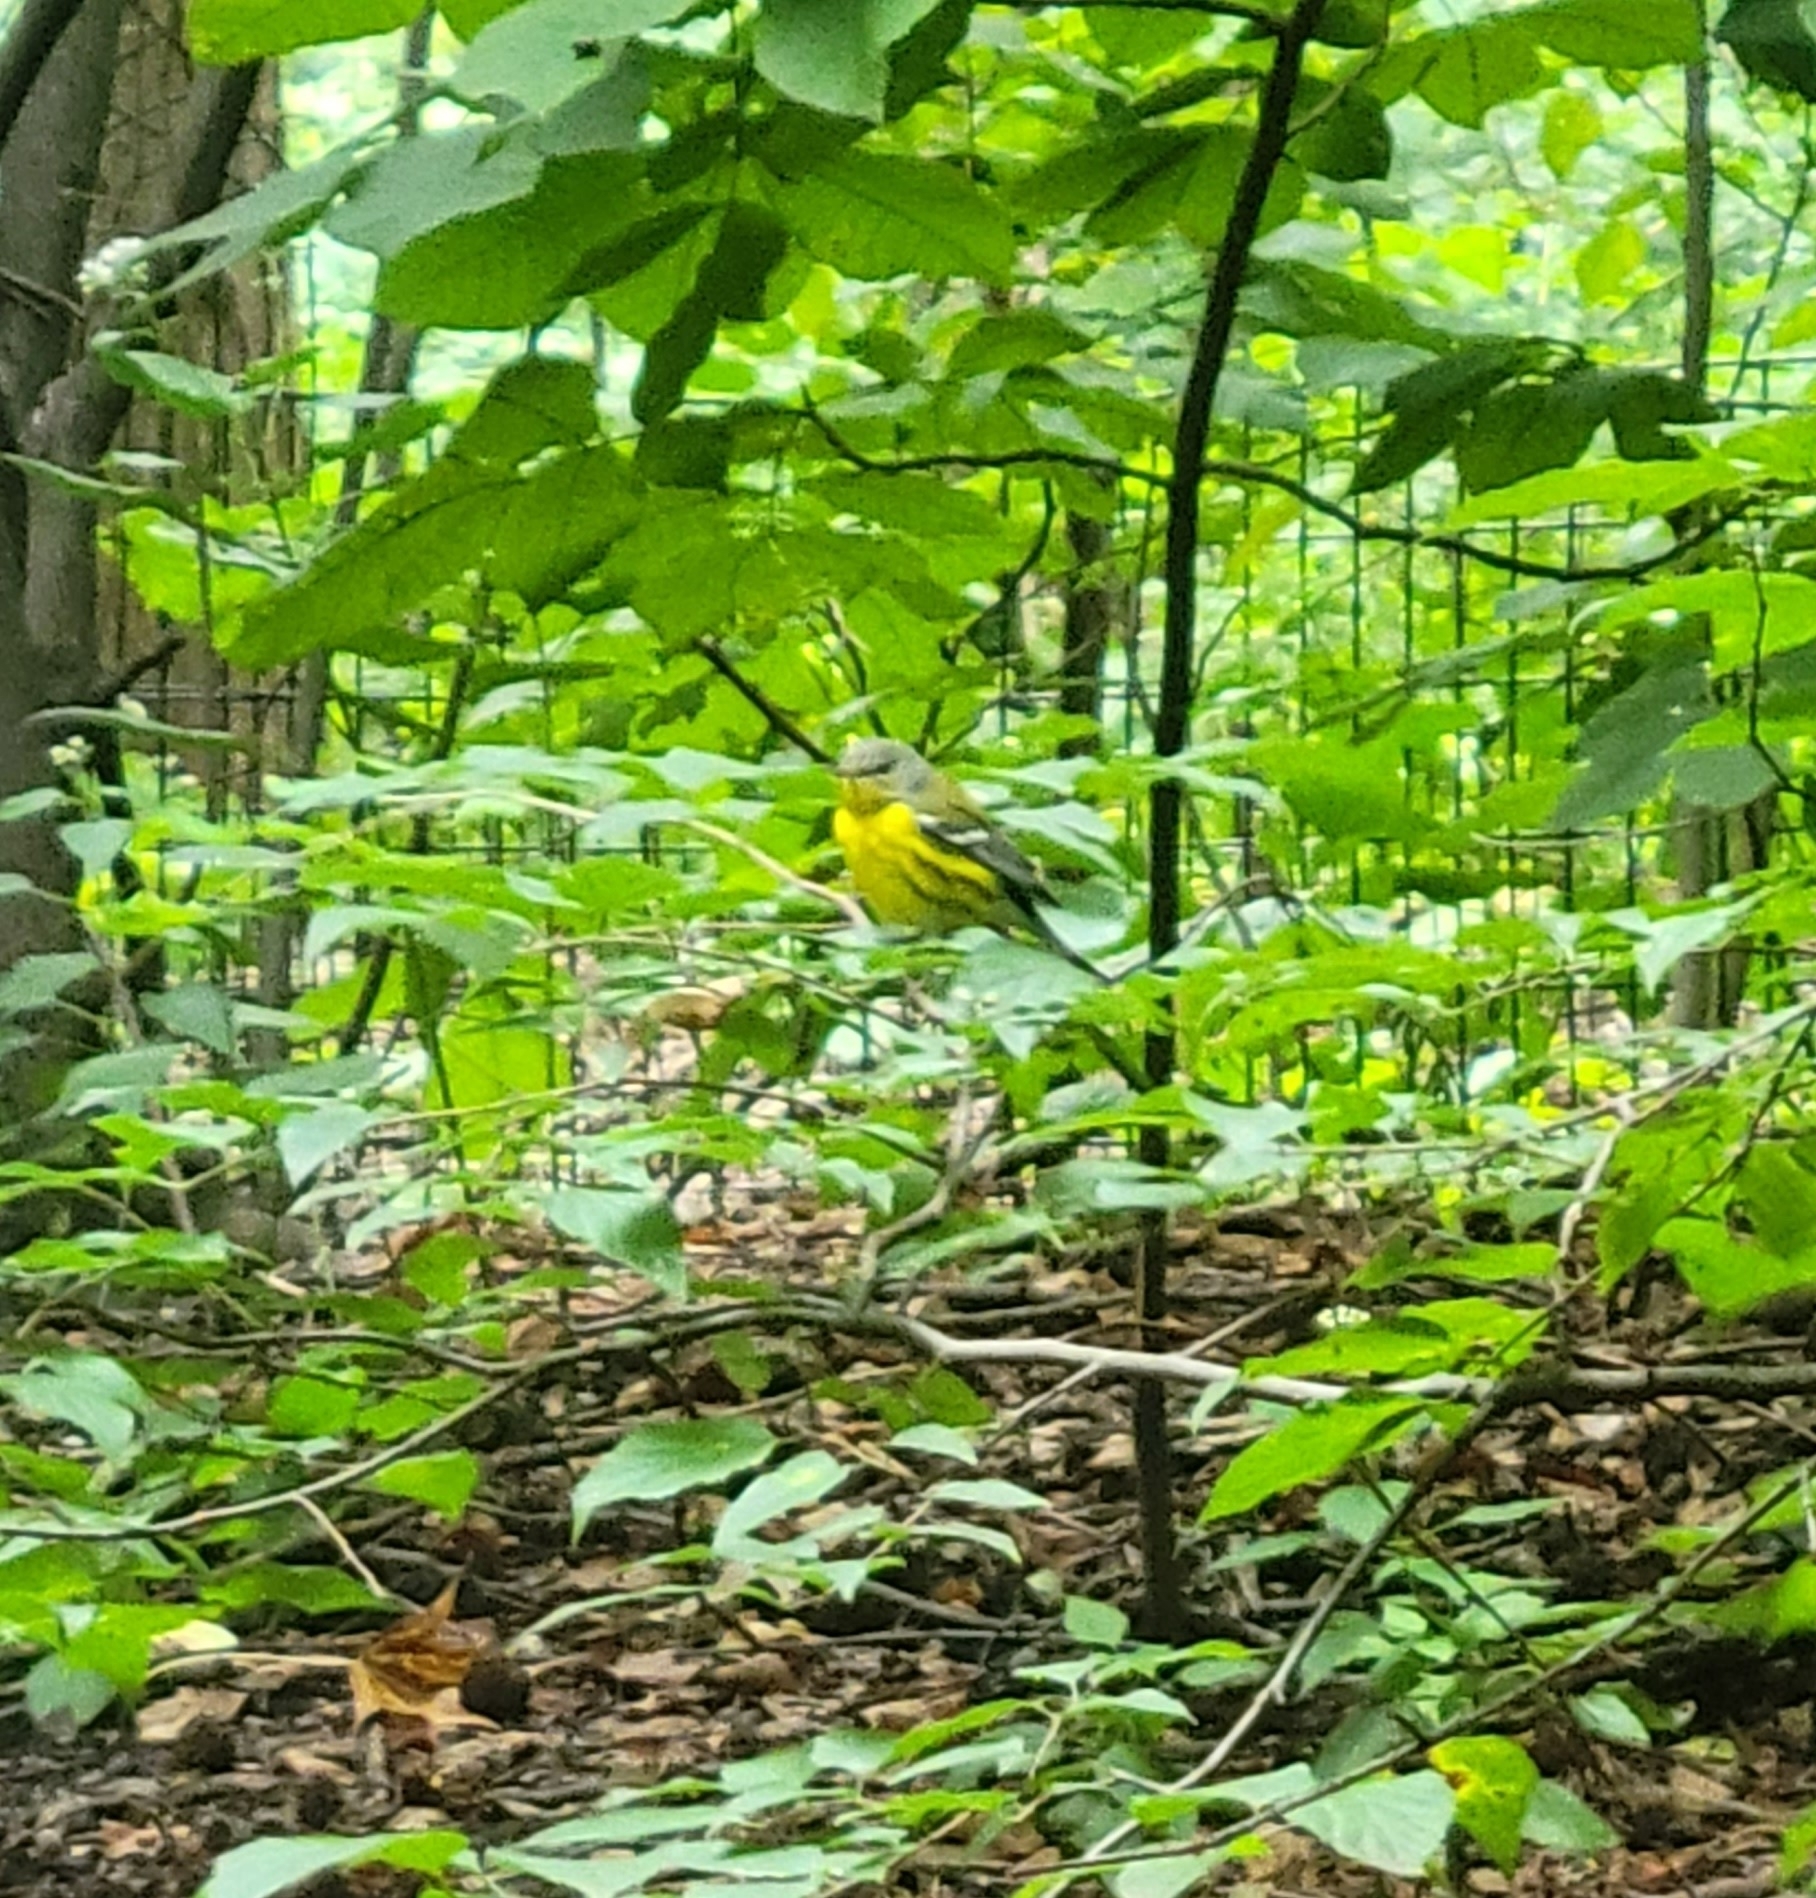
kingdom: Animalia
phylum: Chordata
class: Aves
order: Passeriformes
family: Parulidae
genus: Setophaga
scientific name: Setophaga magnolia
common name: Magnolia warbler
